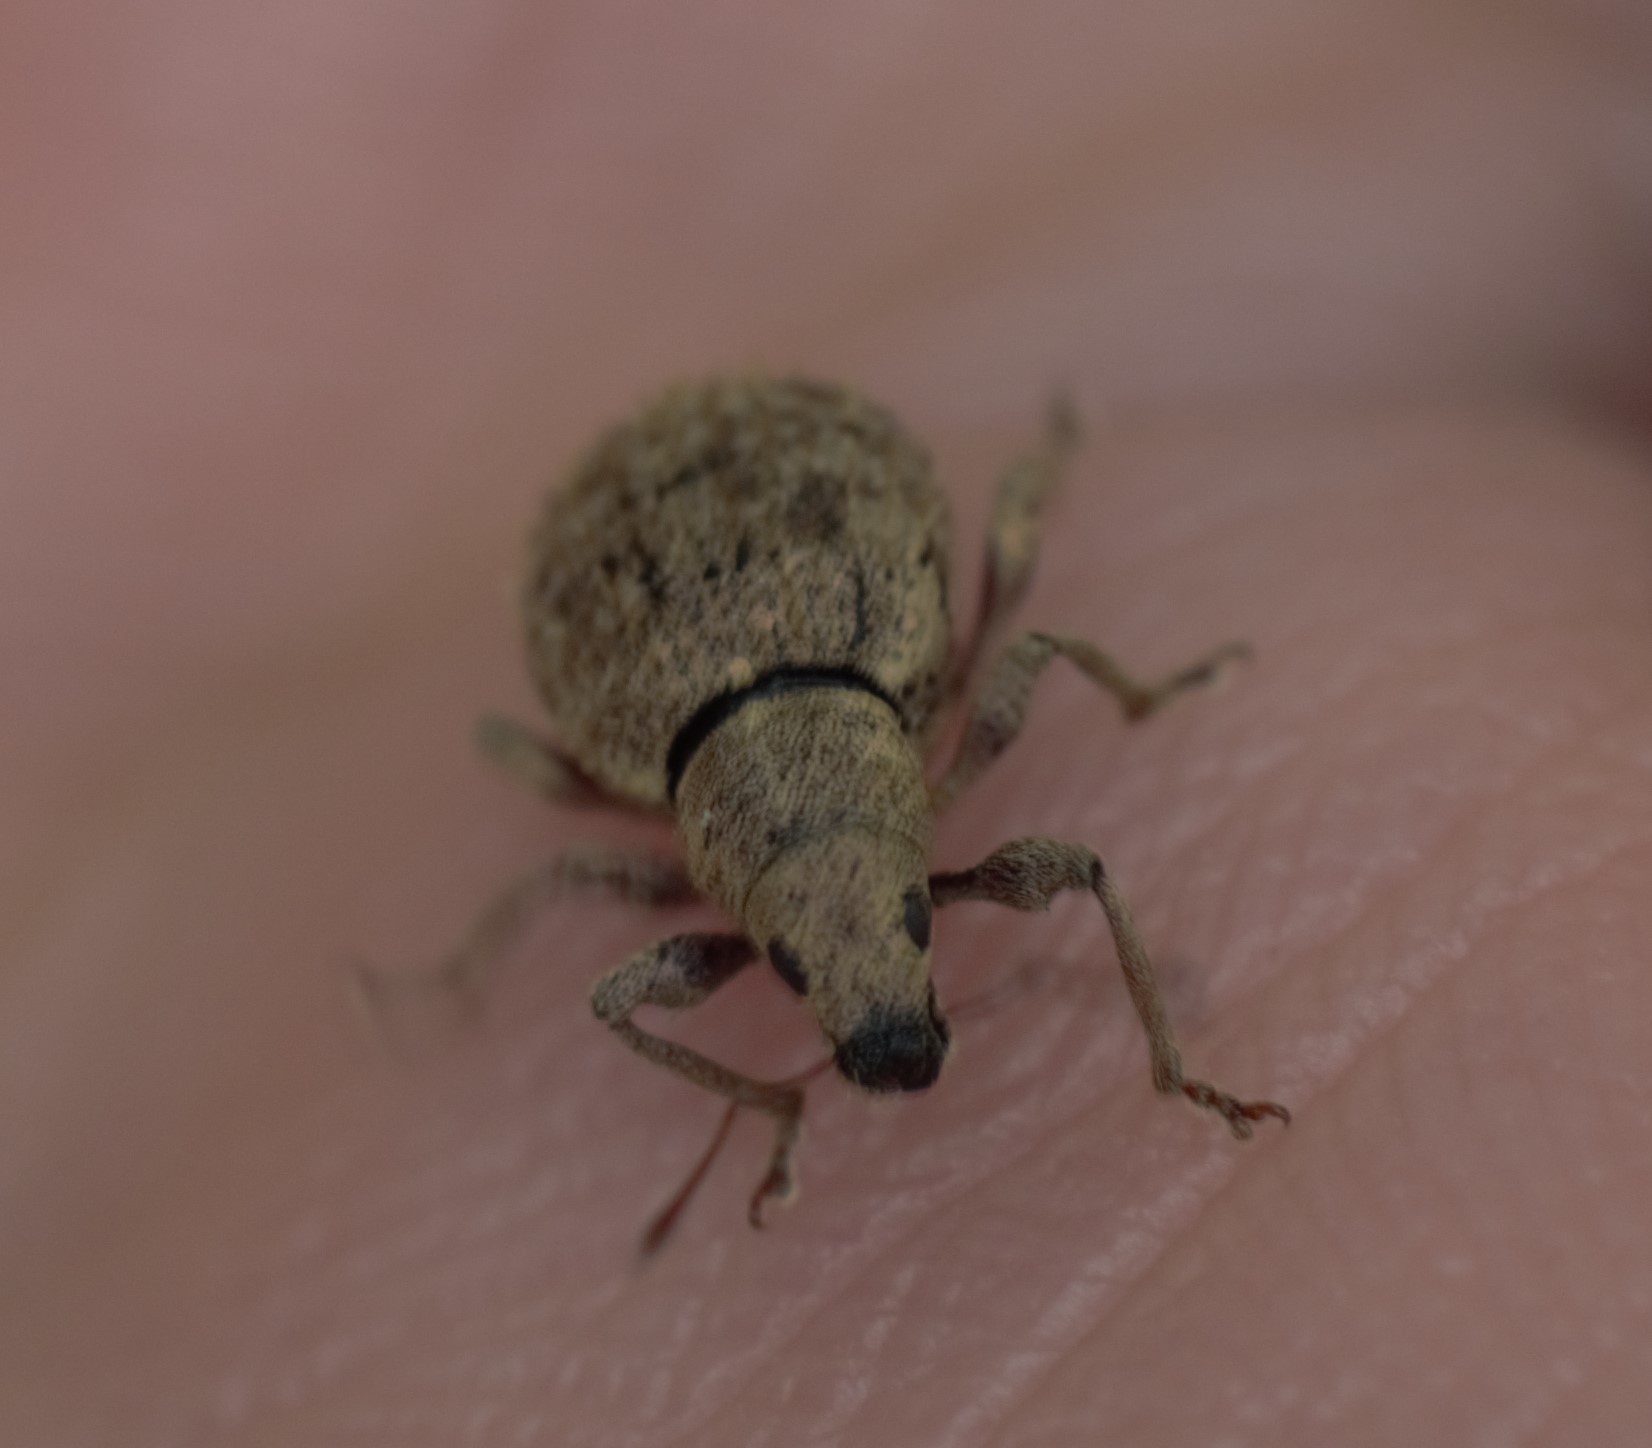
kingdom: Animalia
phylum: Arthropoda
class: Insecta
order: Coleoptera
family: Curculionidae
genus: Sciaphilus
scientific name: Sciaphilus asperatus
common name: Weevil
